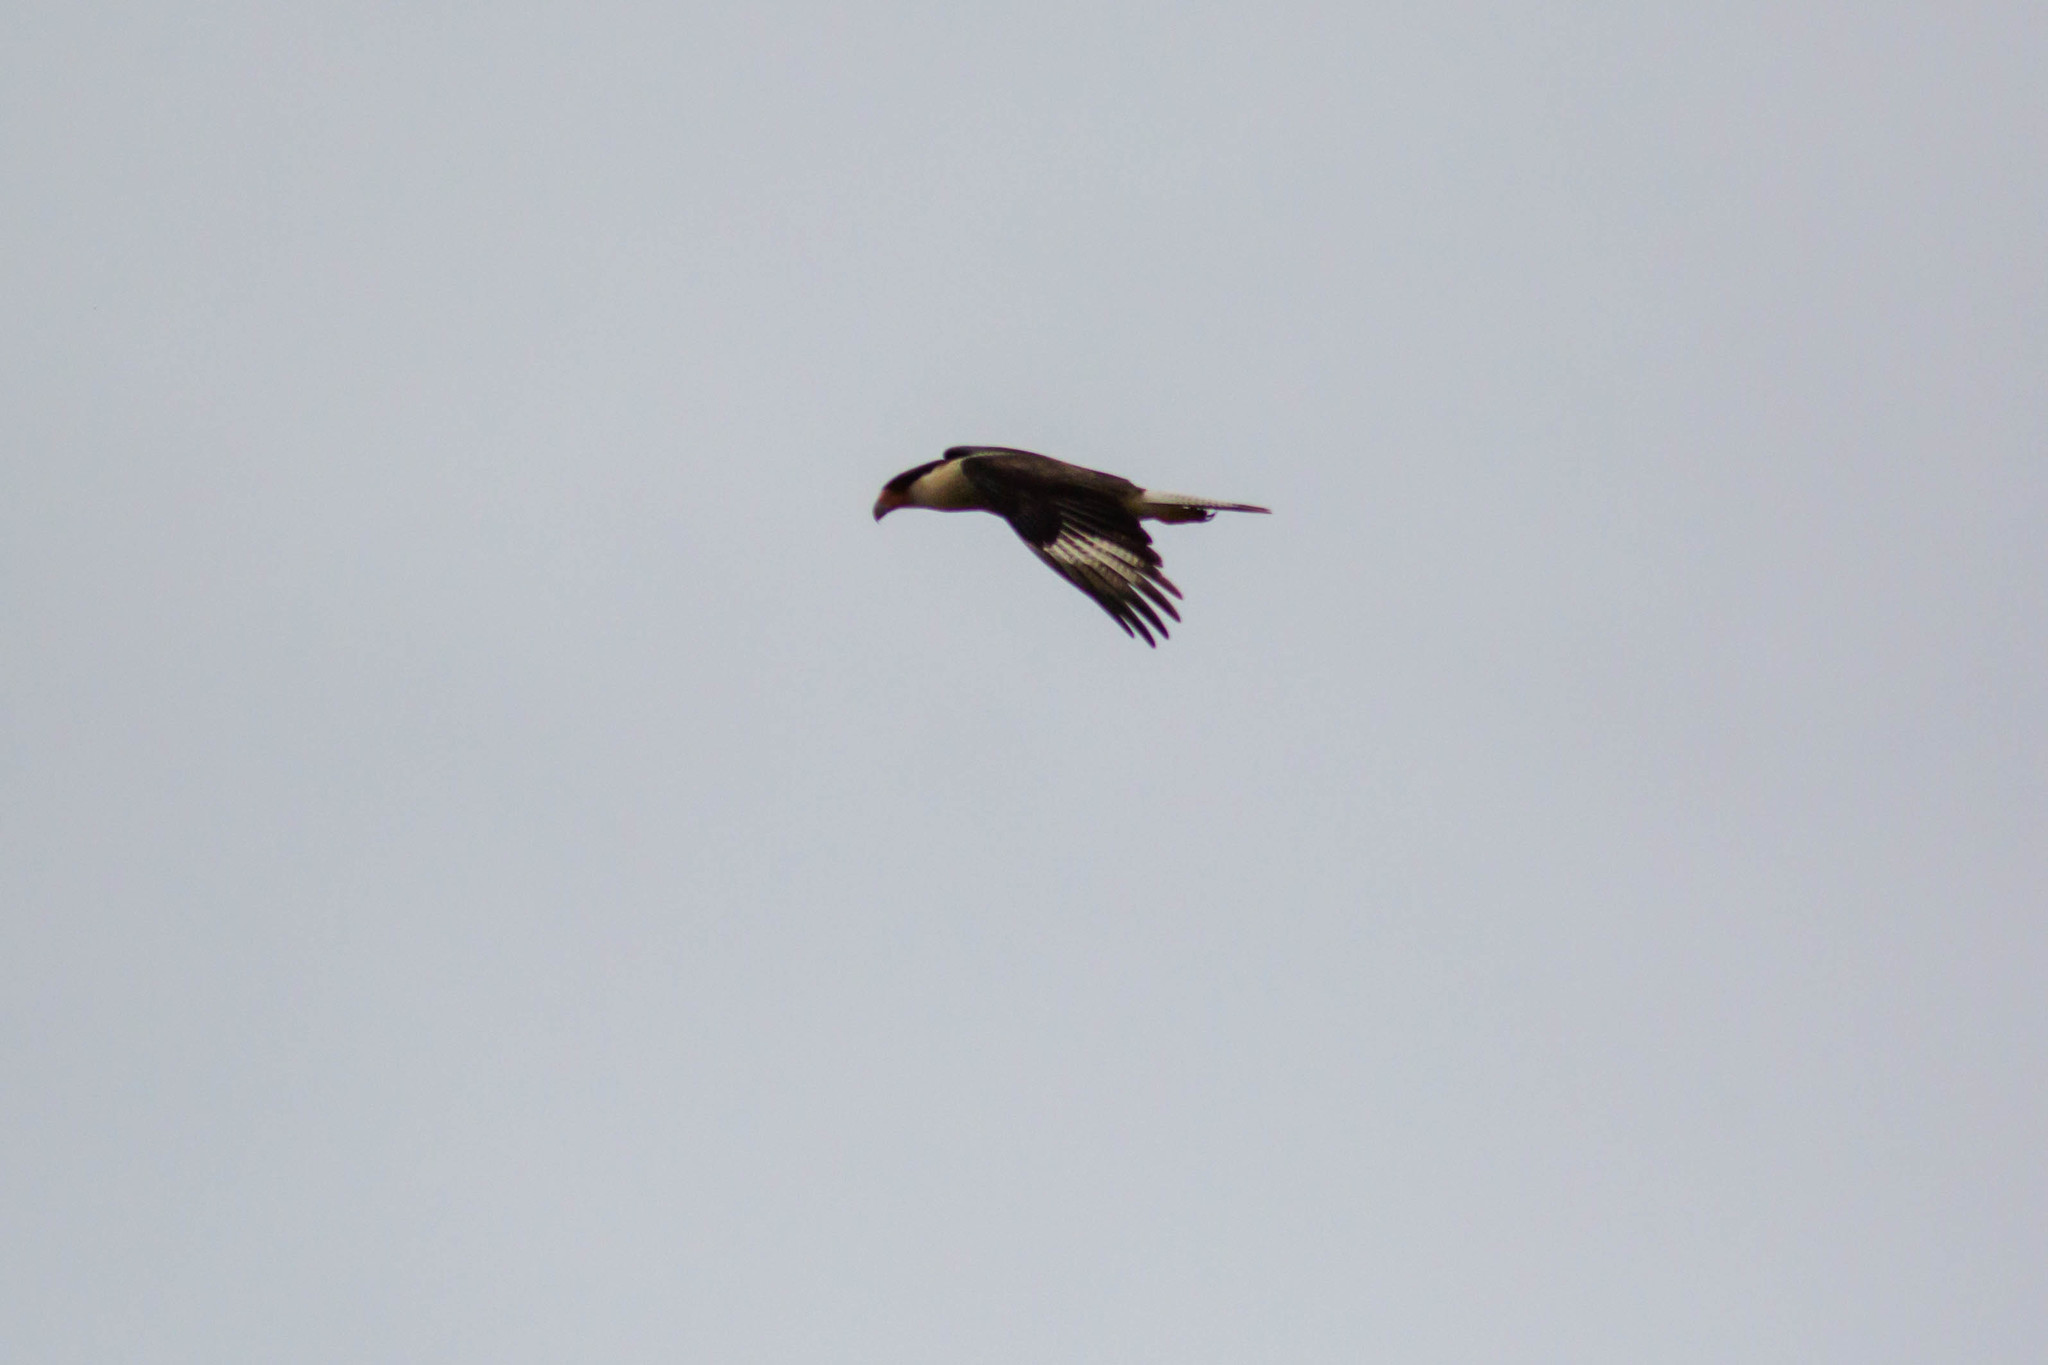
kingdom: Animalia
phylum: Chordata
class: Aves
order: Falconiformes
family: Falconidae
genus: Caracara
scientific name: Caracara plancus
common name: Southern caracara
